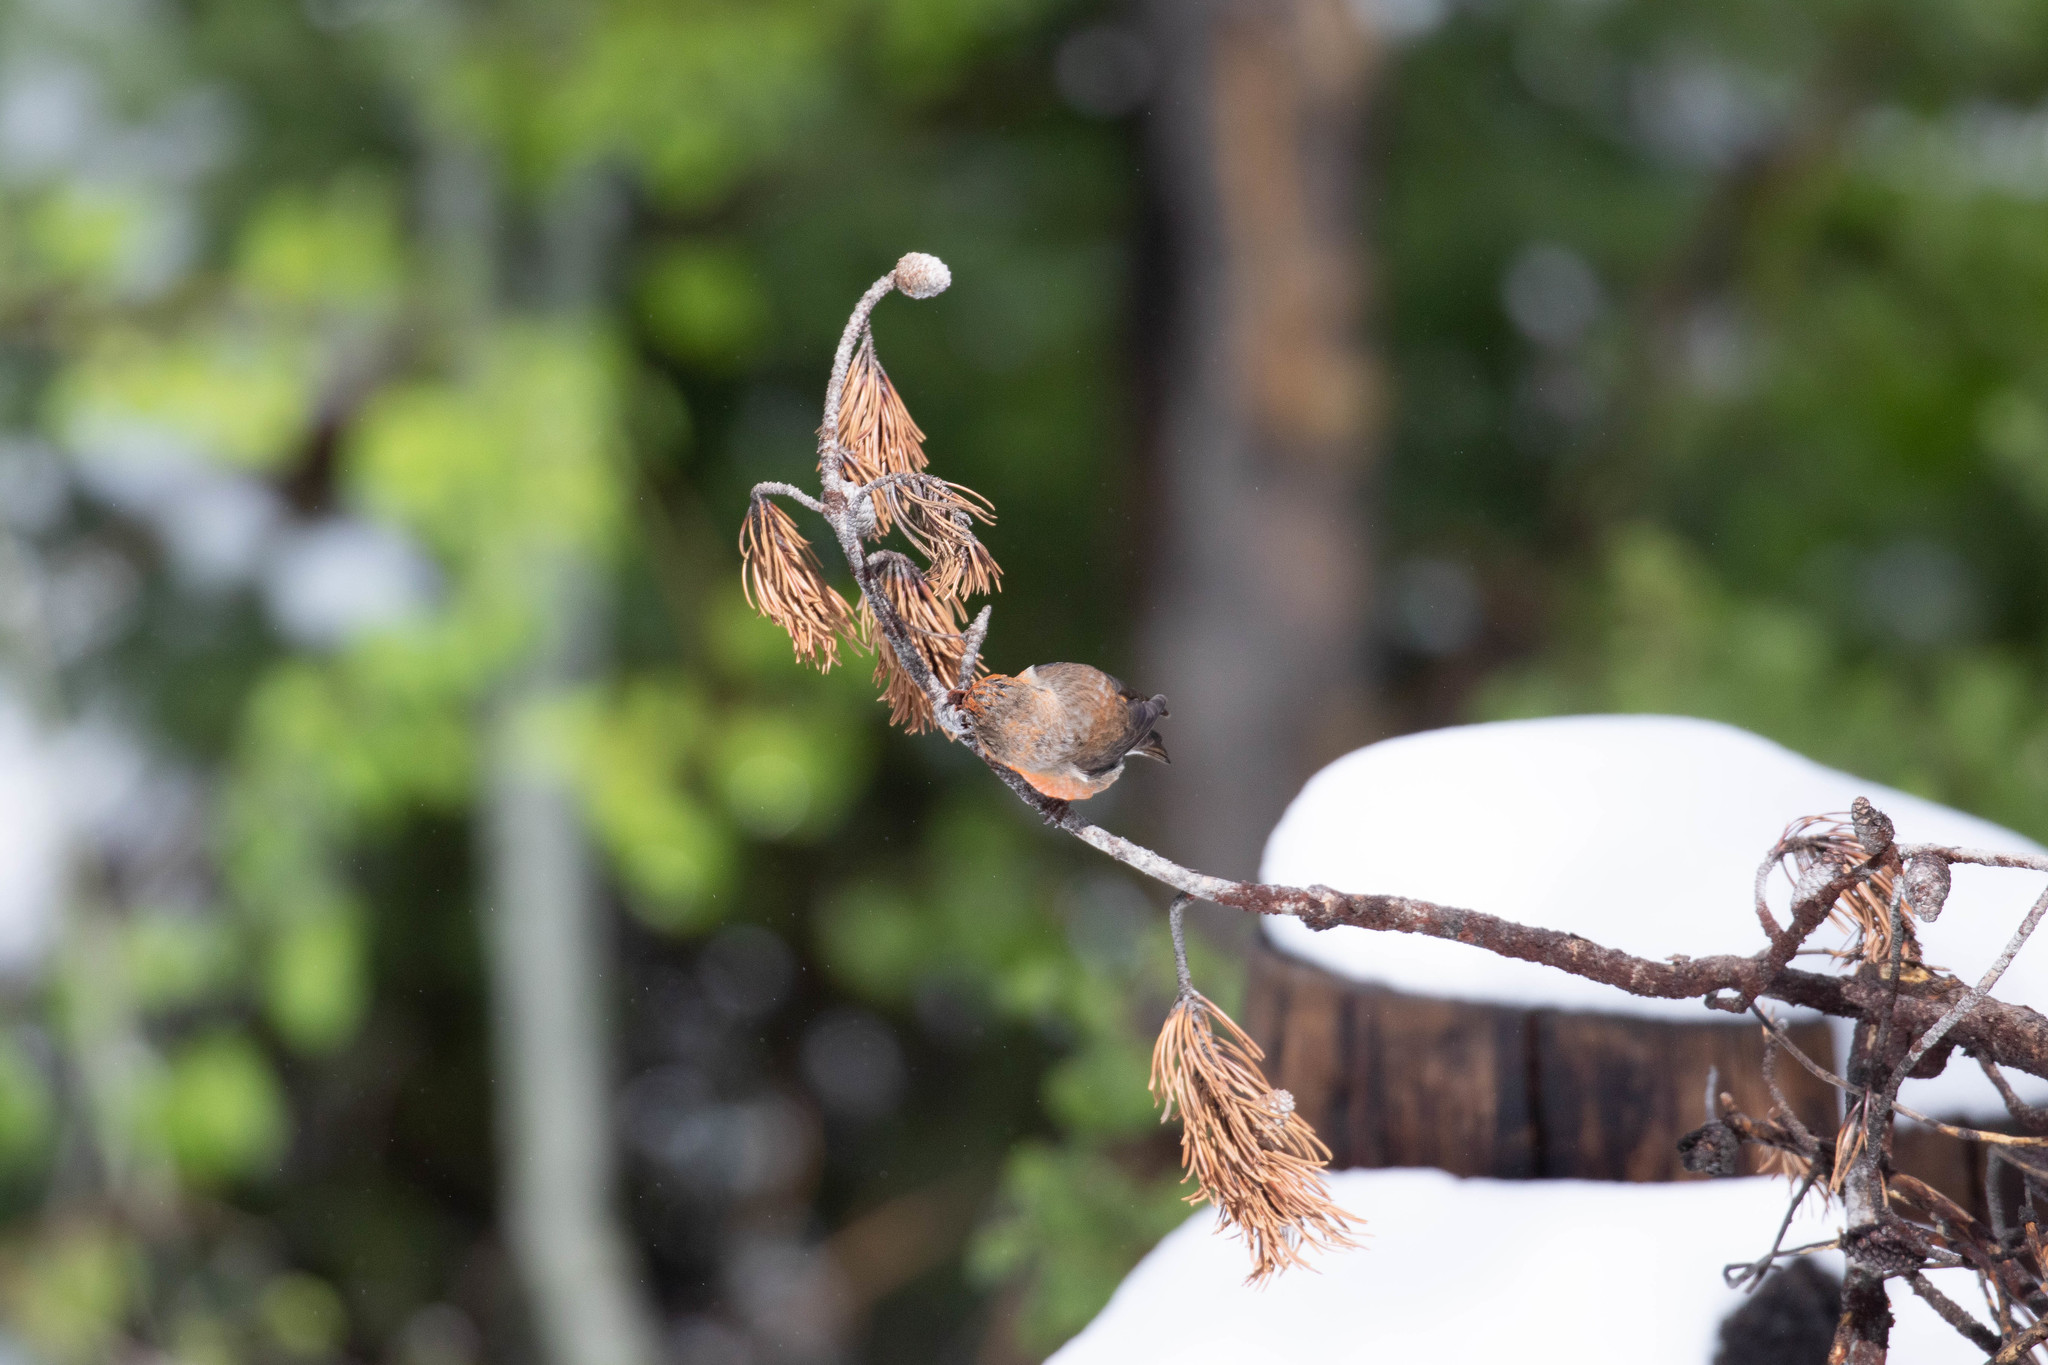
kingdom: Animalia
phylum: Chordata
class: Aves
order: Passeriformes
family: Fringillidae
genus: Loxia
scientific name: Loxia sinesciuris
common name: Cassia crossbill
